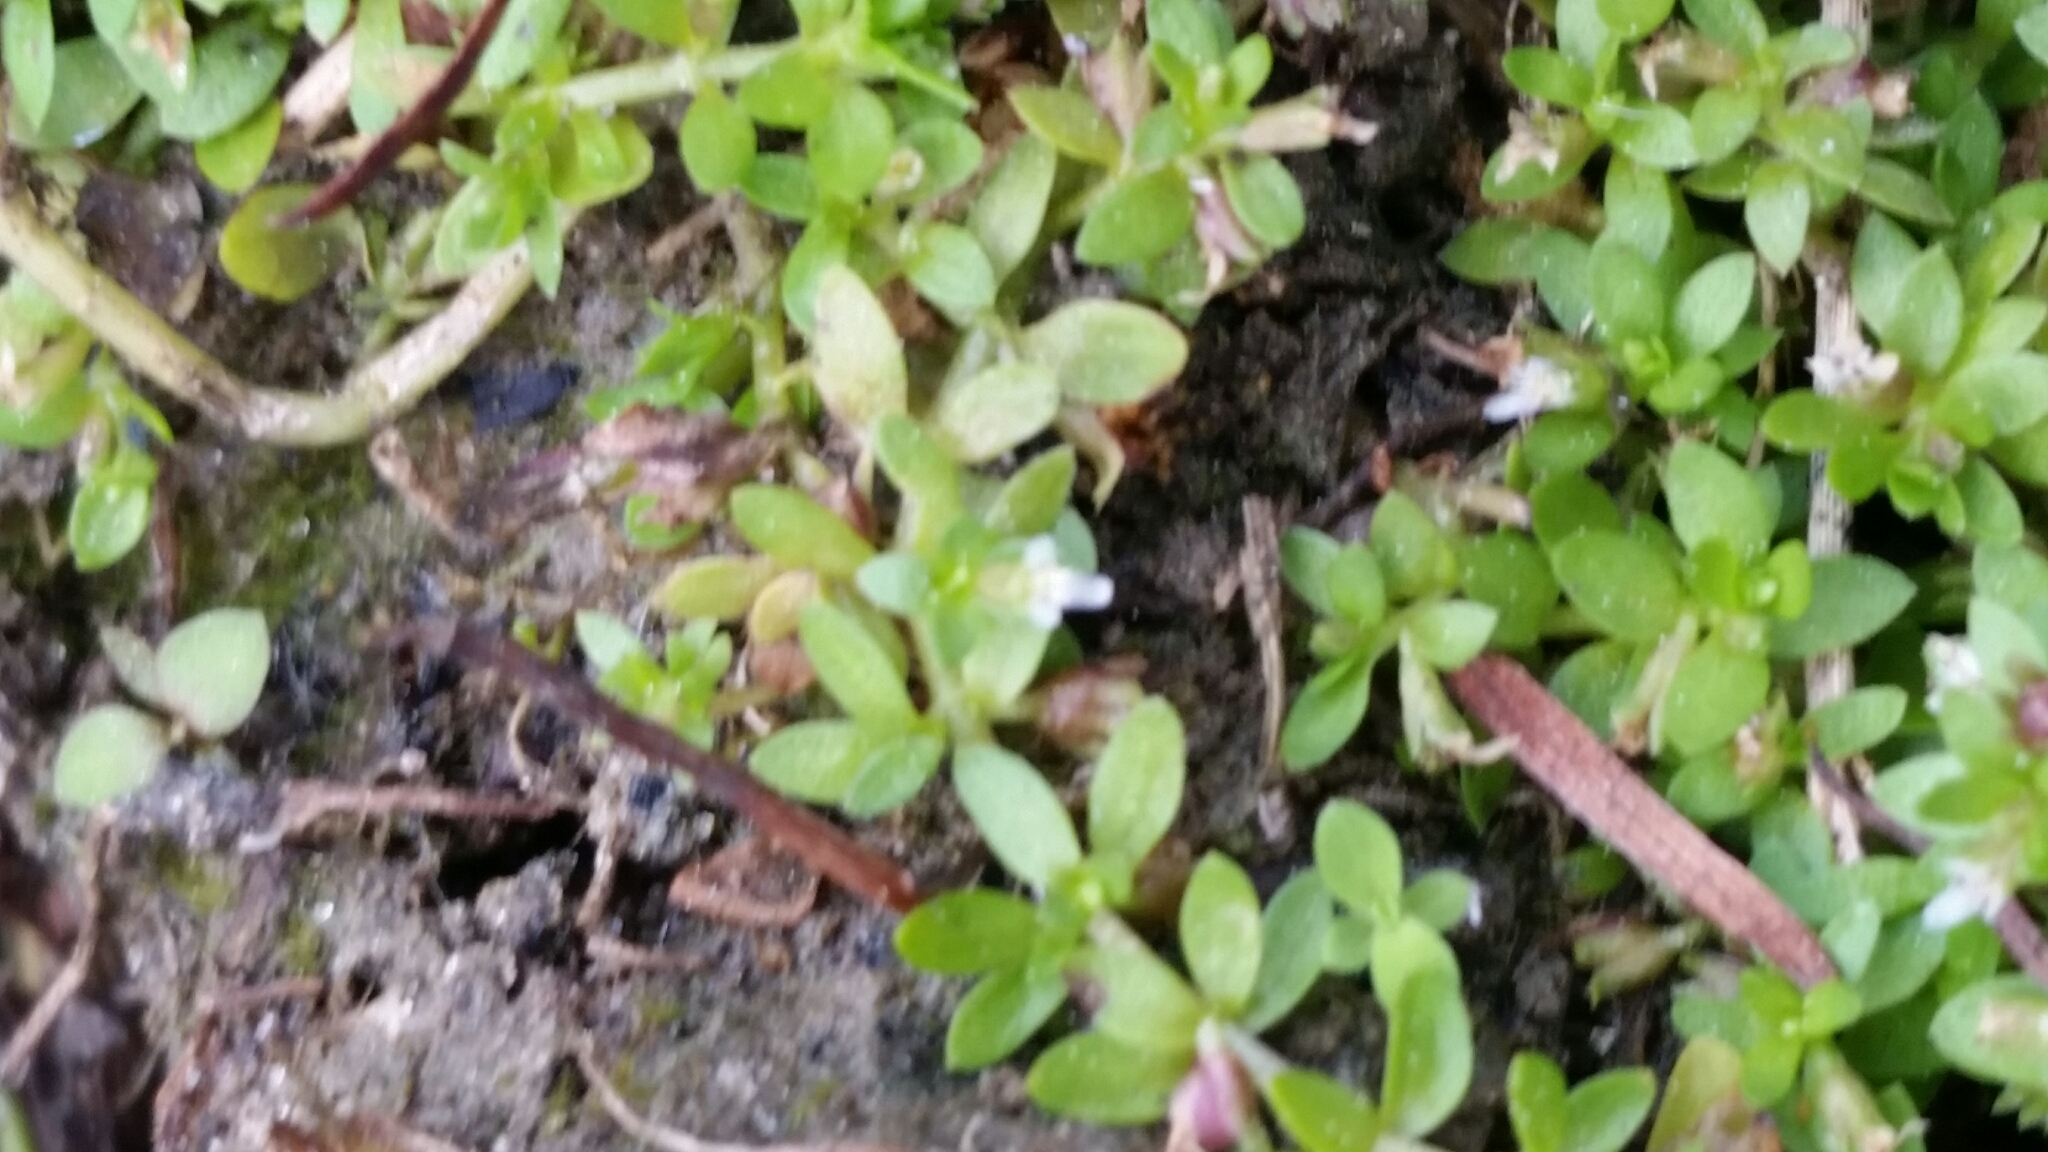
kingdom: Plantae
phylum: Tracheophyta
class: Magnoliopsida
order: Lamiales
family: Linderniaceae
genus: Micranthemum
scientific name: Micranthemum glomeratum
